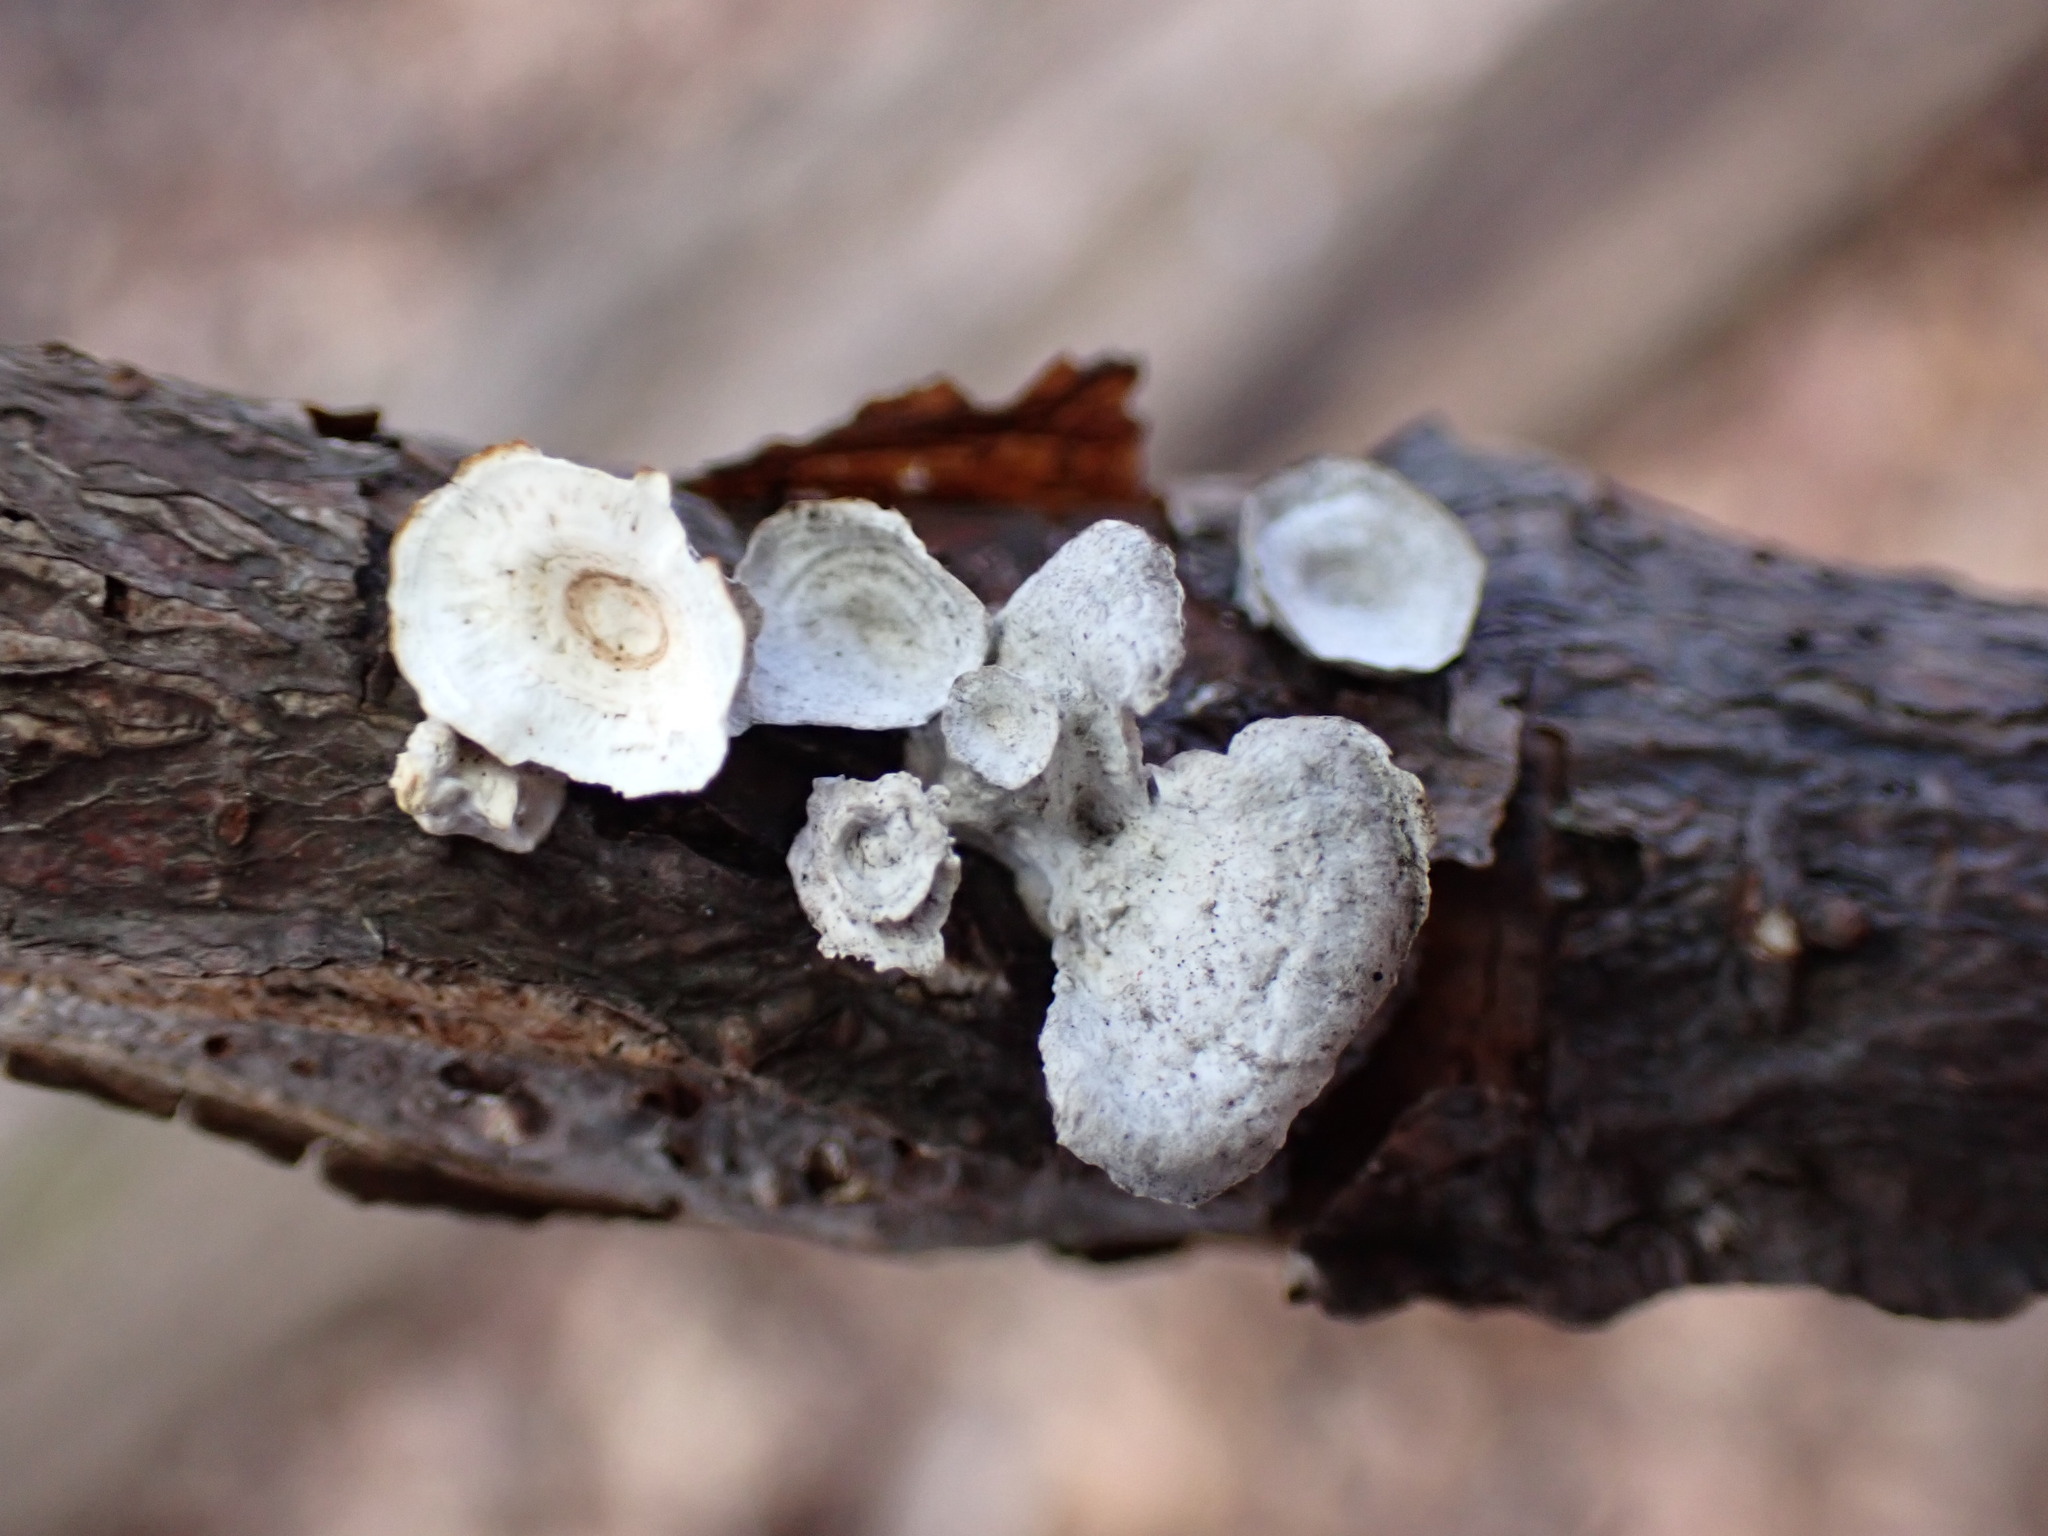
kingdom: Fungi
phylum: Basidiomycota
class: Agaricomycetes
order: Polyporales
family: Polyporaceae
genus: Poronidulus
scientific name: Poronidulus conchifer
